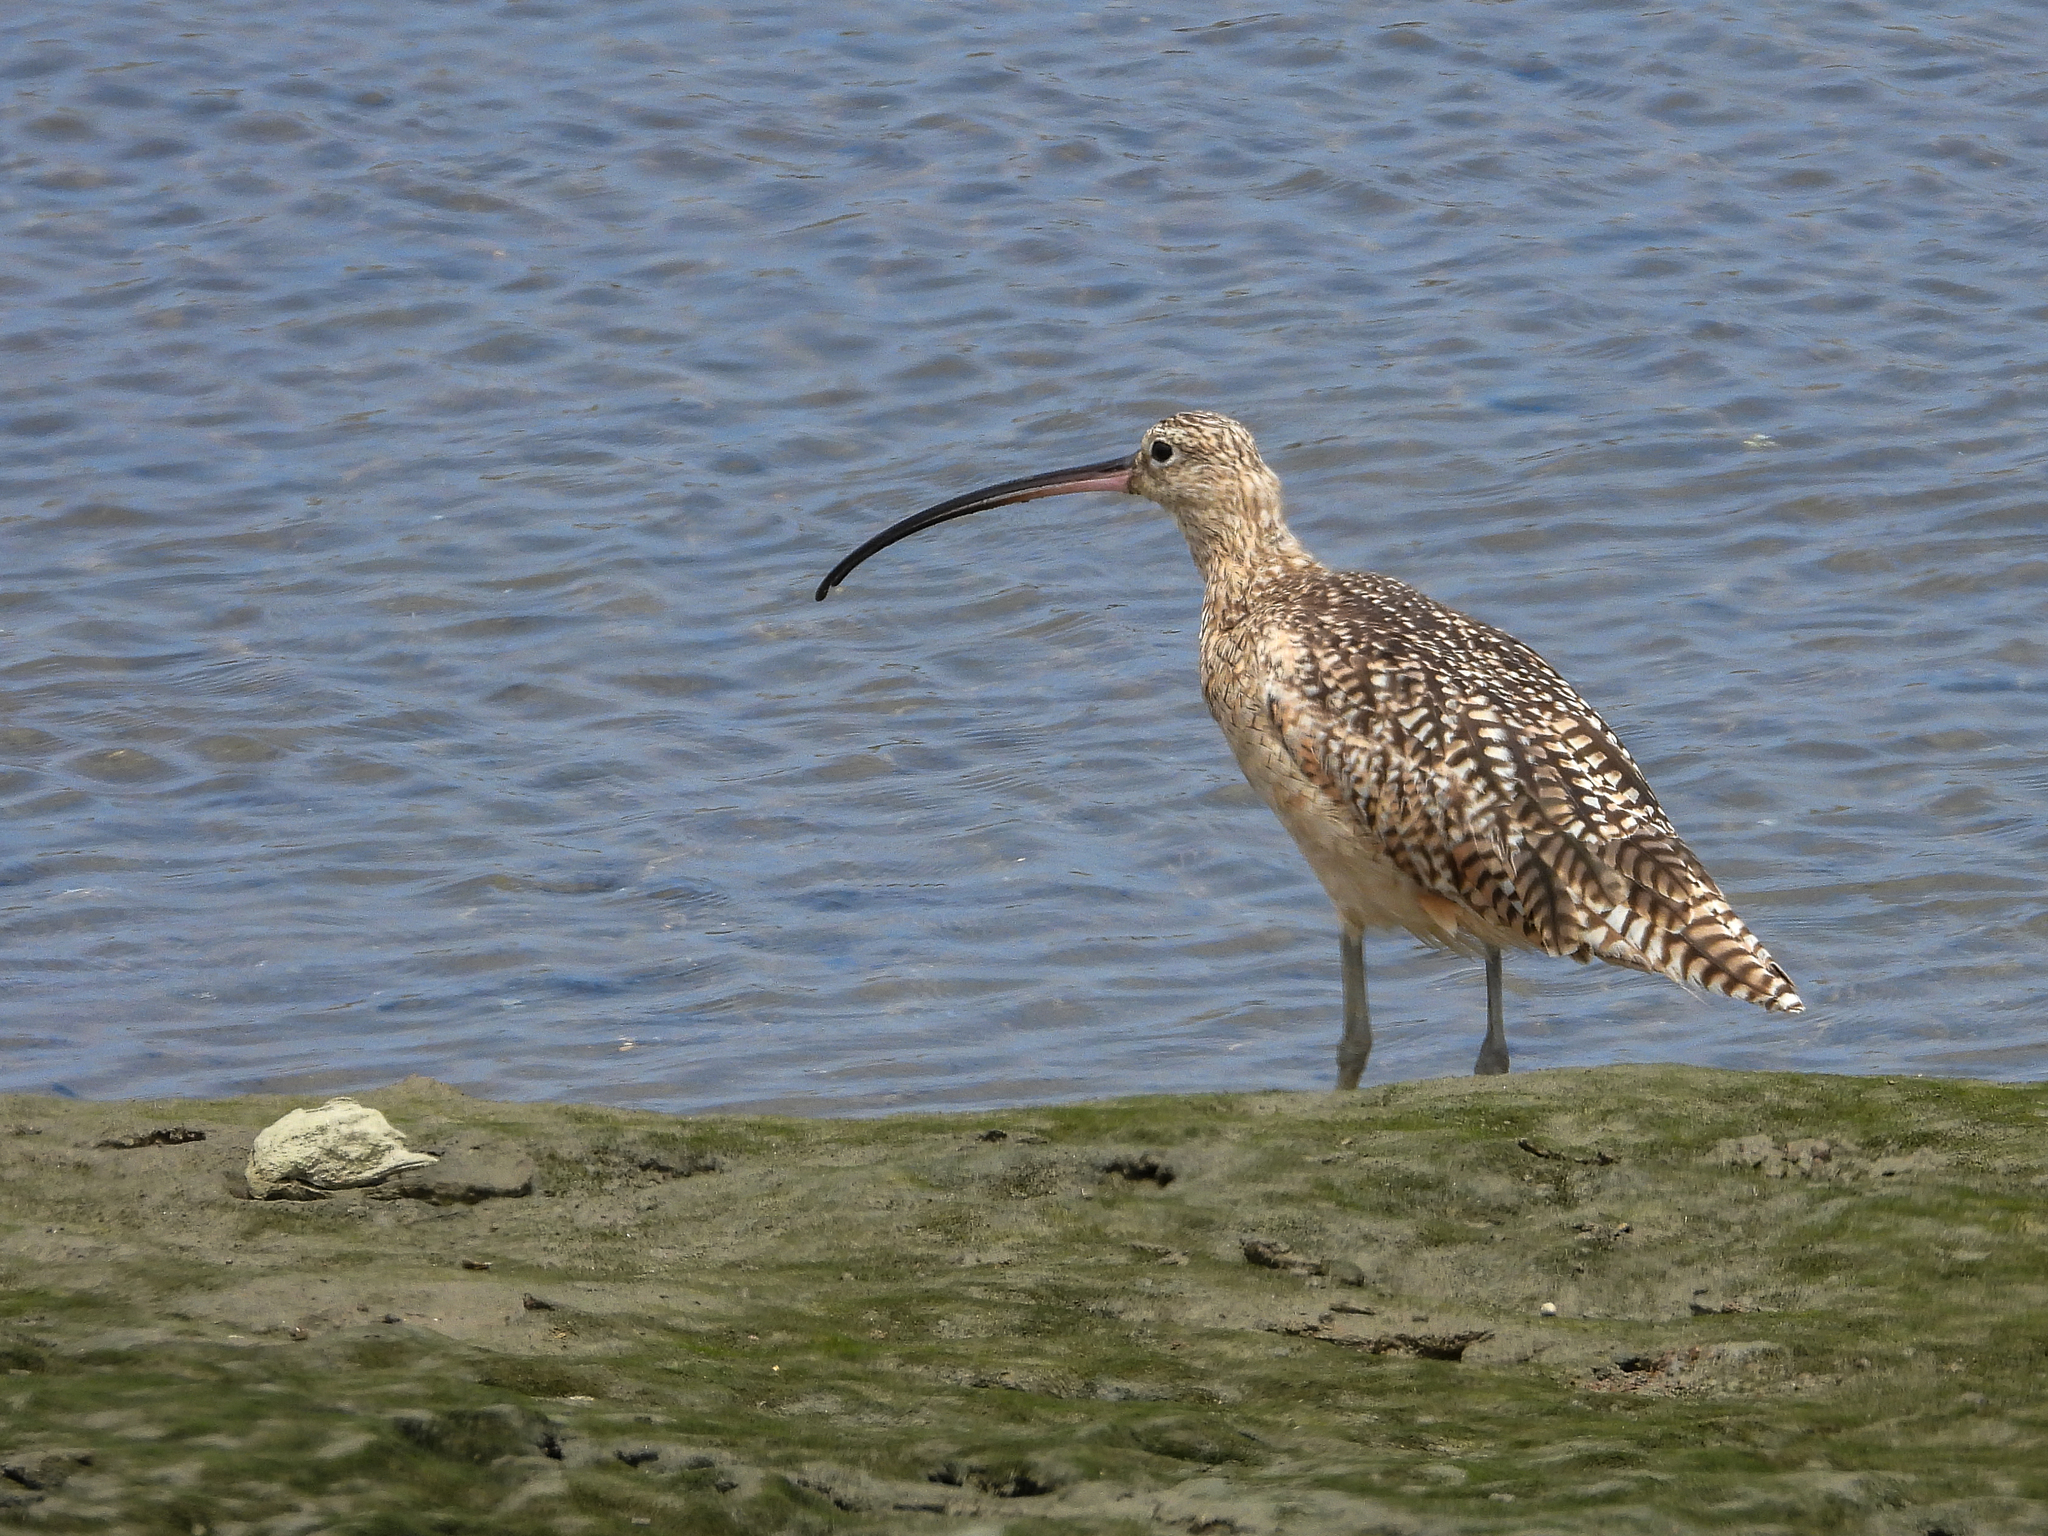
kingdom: Animalia
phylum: Chordata
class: Aves
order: Charadriiformes
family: Scolopacidae
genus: Numenius
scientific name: Numenius americanus
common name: Long-billed curlew
